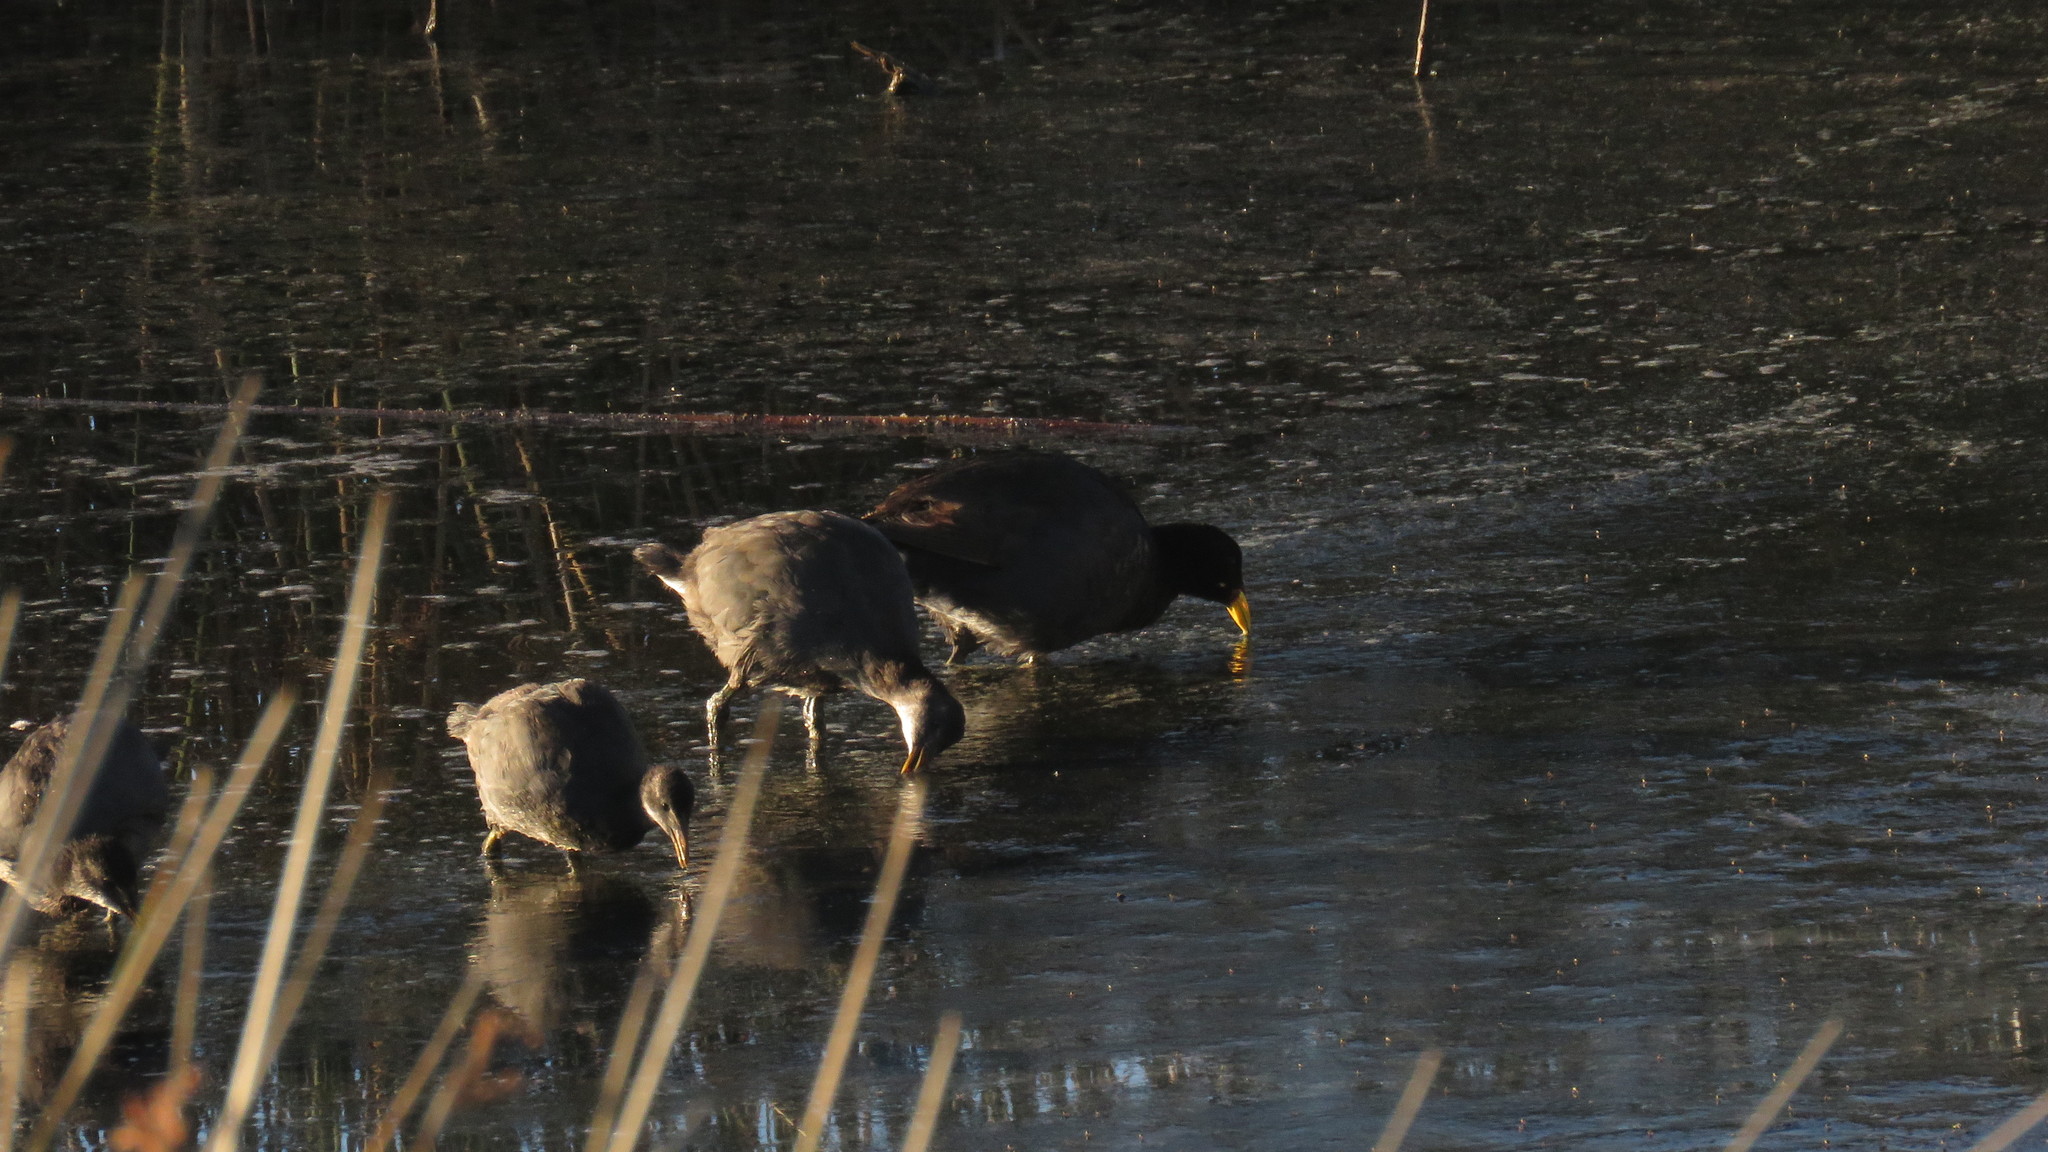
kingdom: Animalia
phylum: Chordata
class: Aves
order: Gruiformes
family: Rallidae
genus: Fulica
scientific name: Fulica rufifrons
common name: Red-fronted coot
